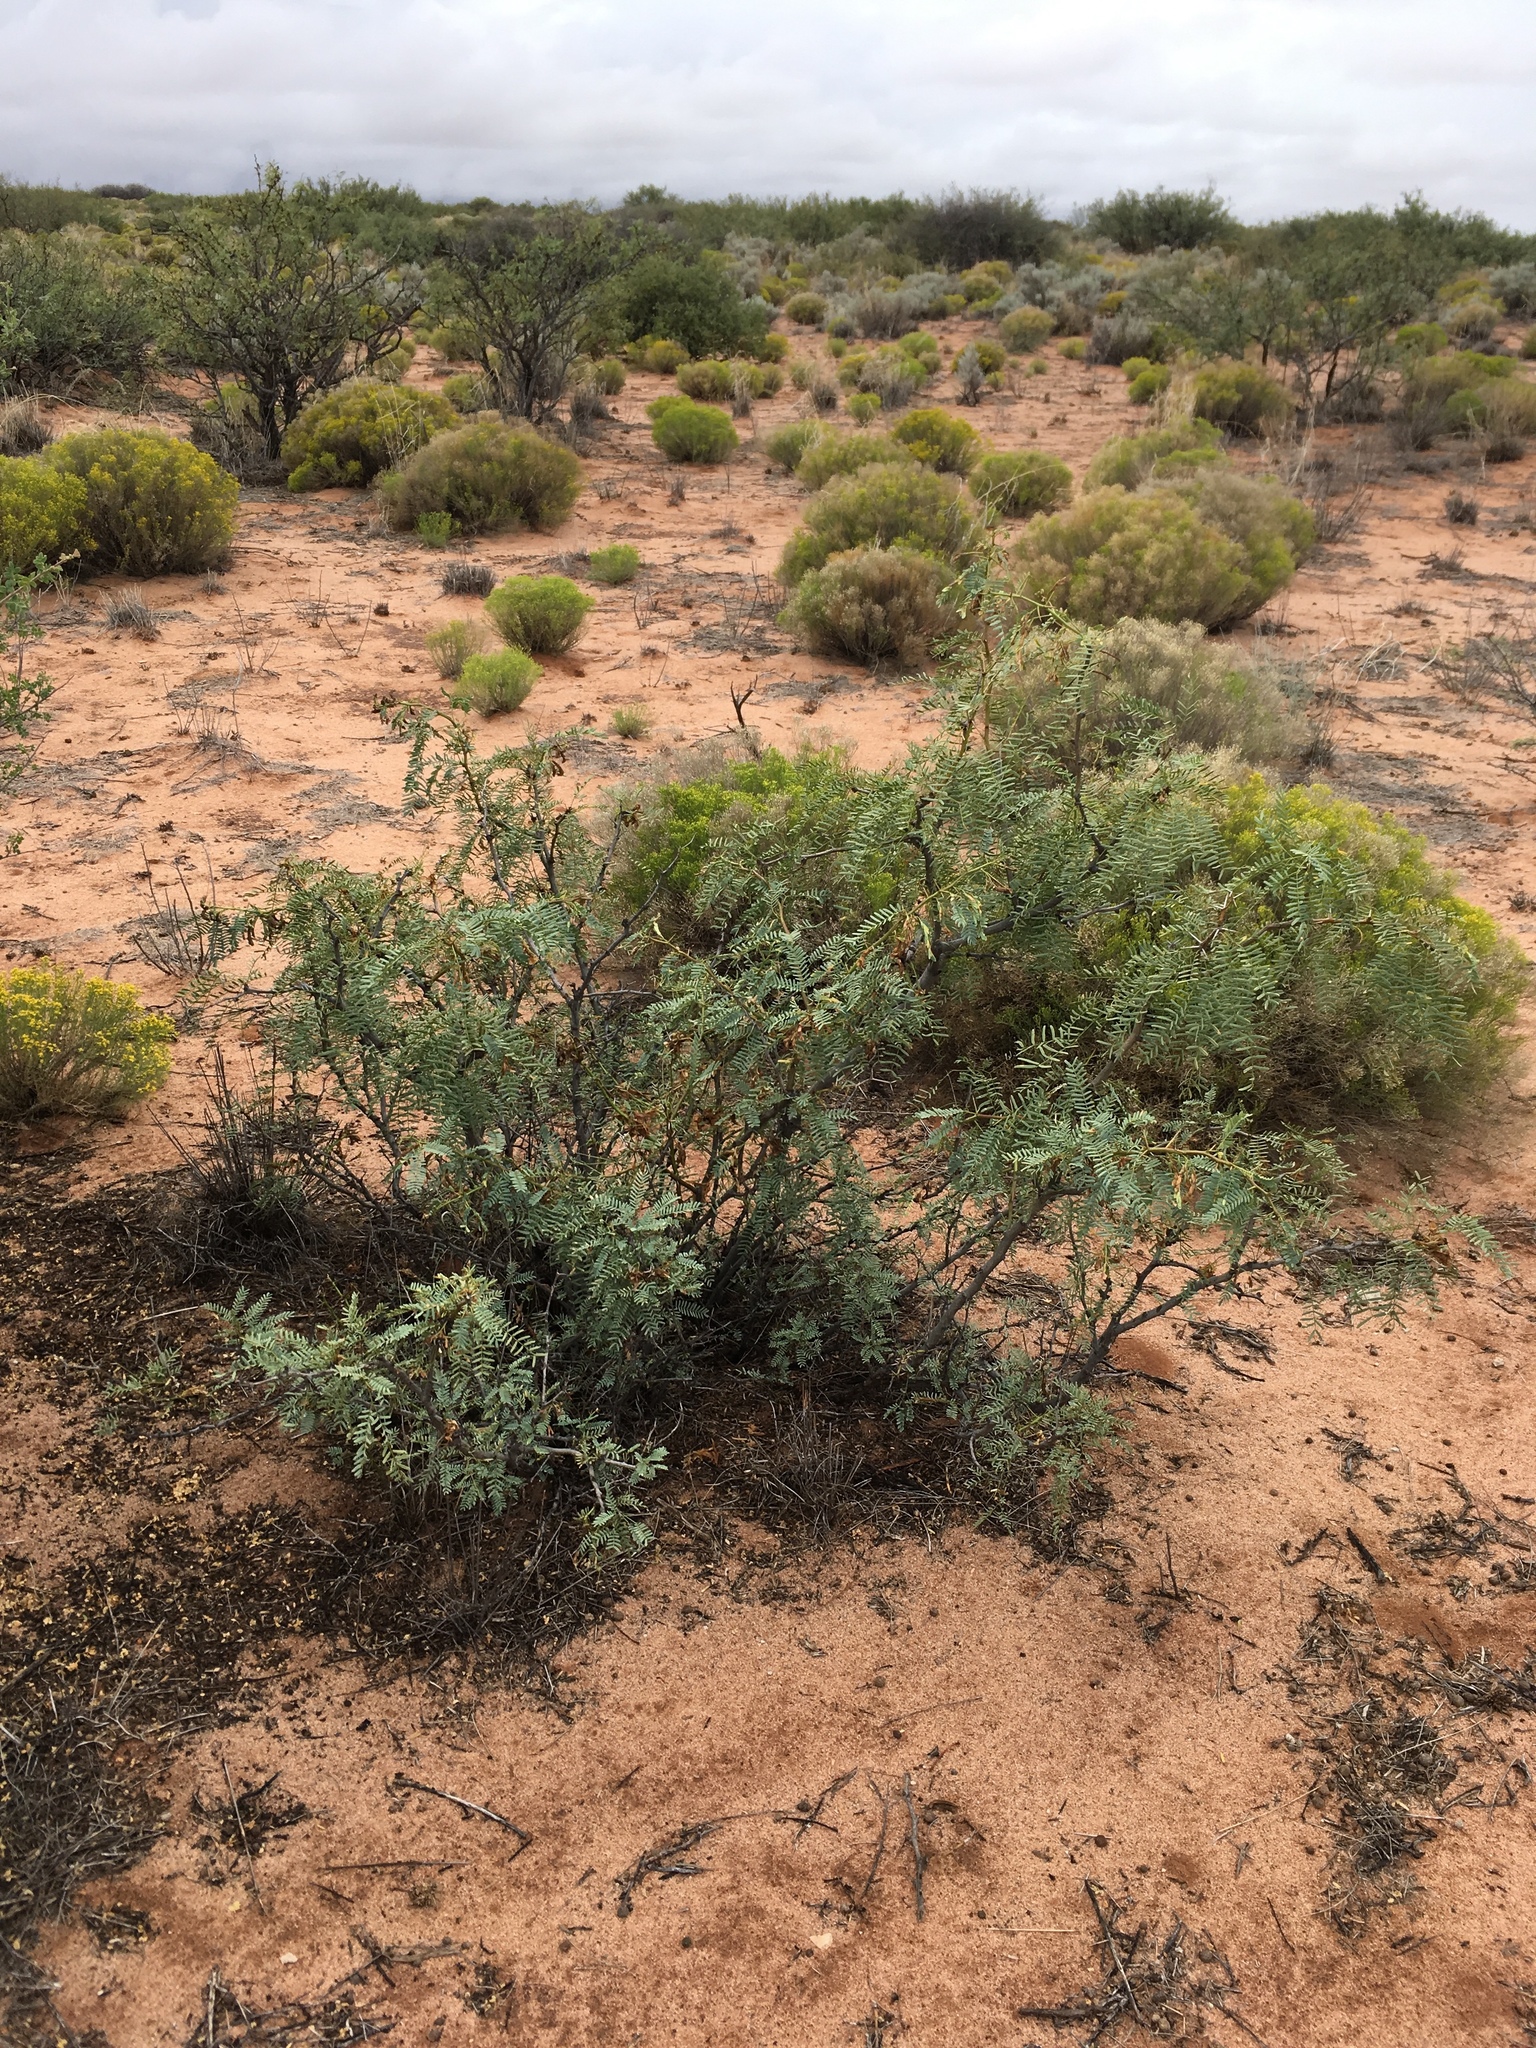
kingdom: Plantae
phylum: Tracheophyta
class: Magnoliopsida
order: Fabales
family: Fabaceae
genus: Prosopis
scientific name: Prosopis glandulosa
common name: Honey mesquite
